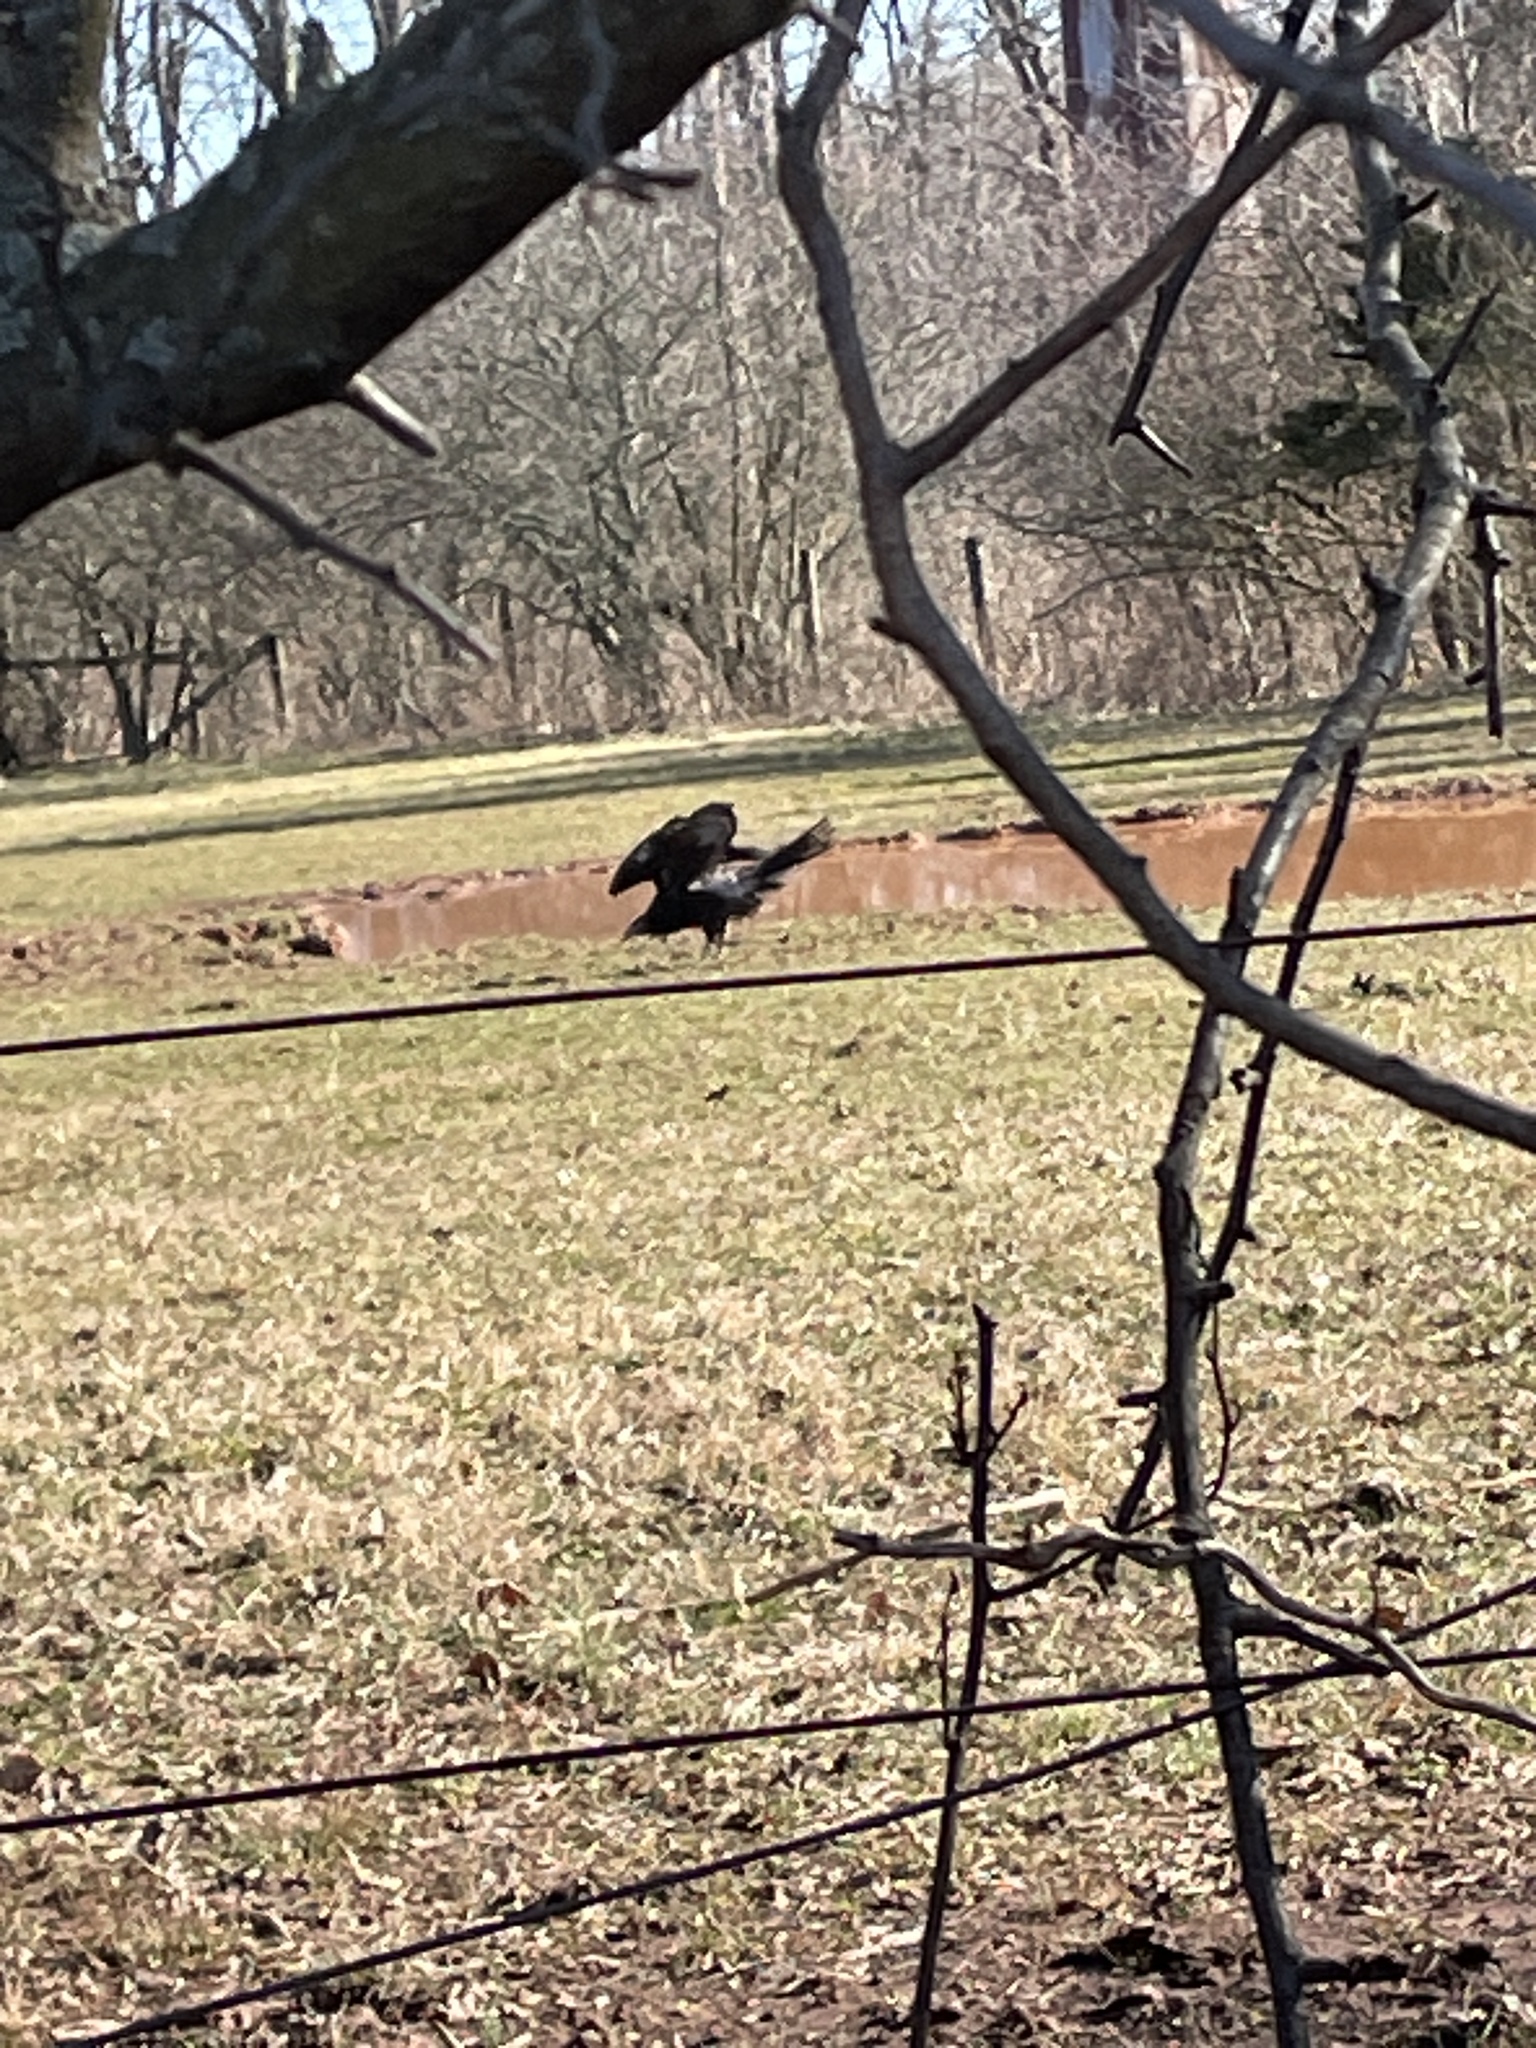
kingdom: Animalia
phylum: Chordata
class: Aves
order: Accipitriformes
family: Cathartidae
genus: Cathartes
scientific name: Cathartes aura
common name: Turkey vulture
